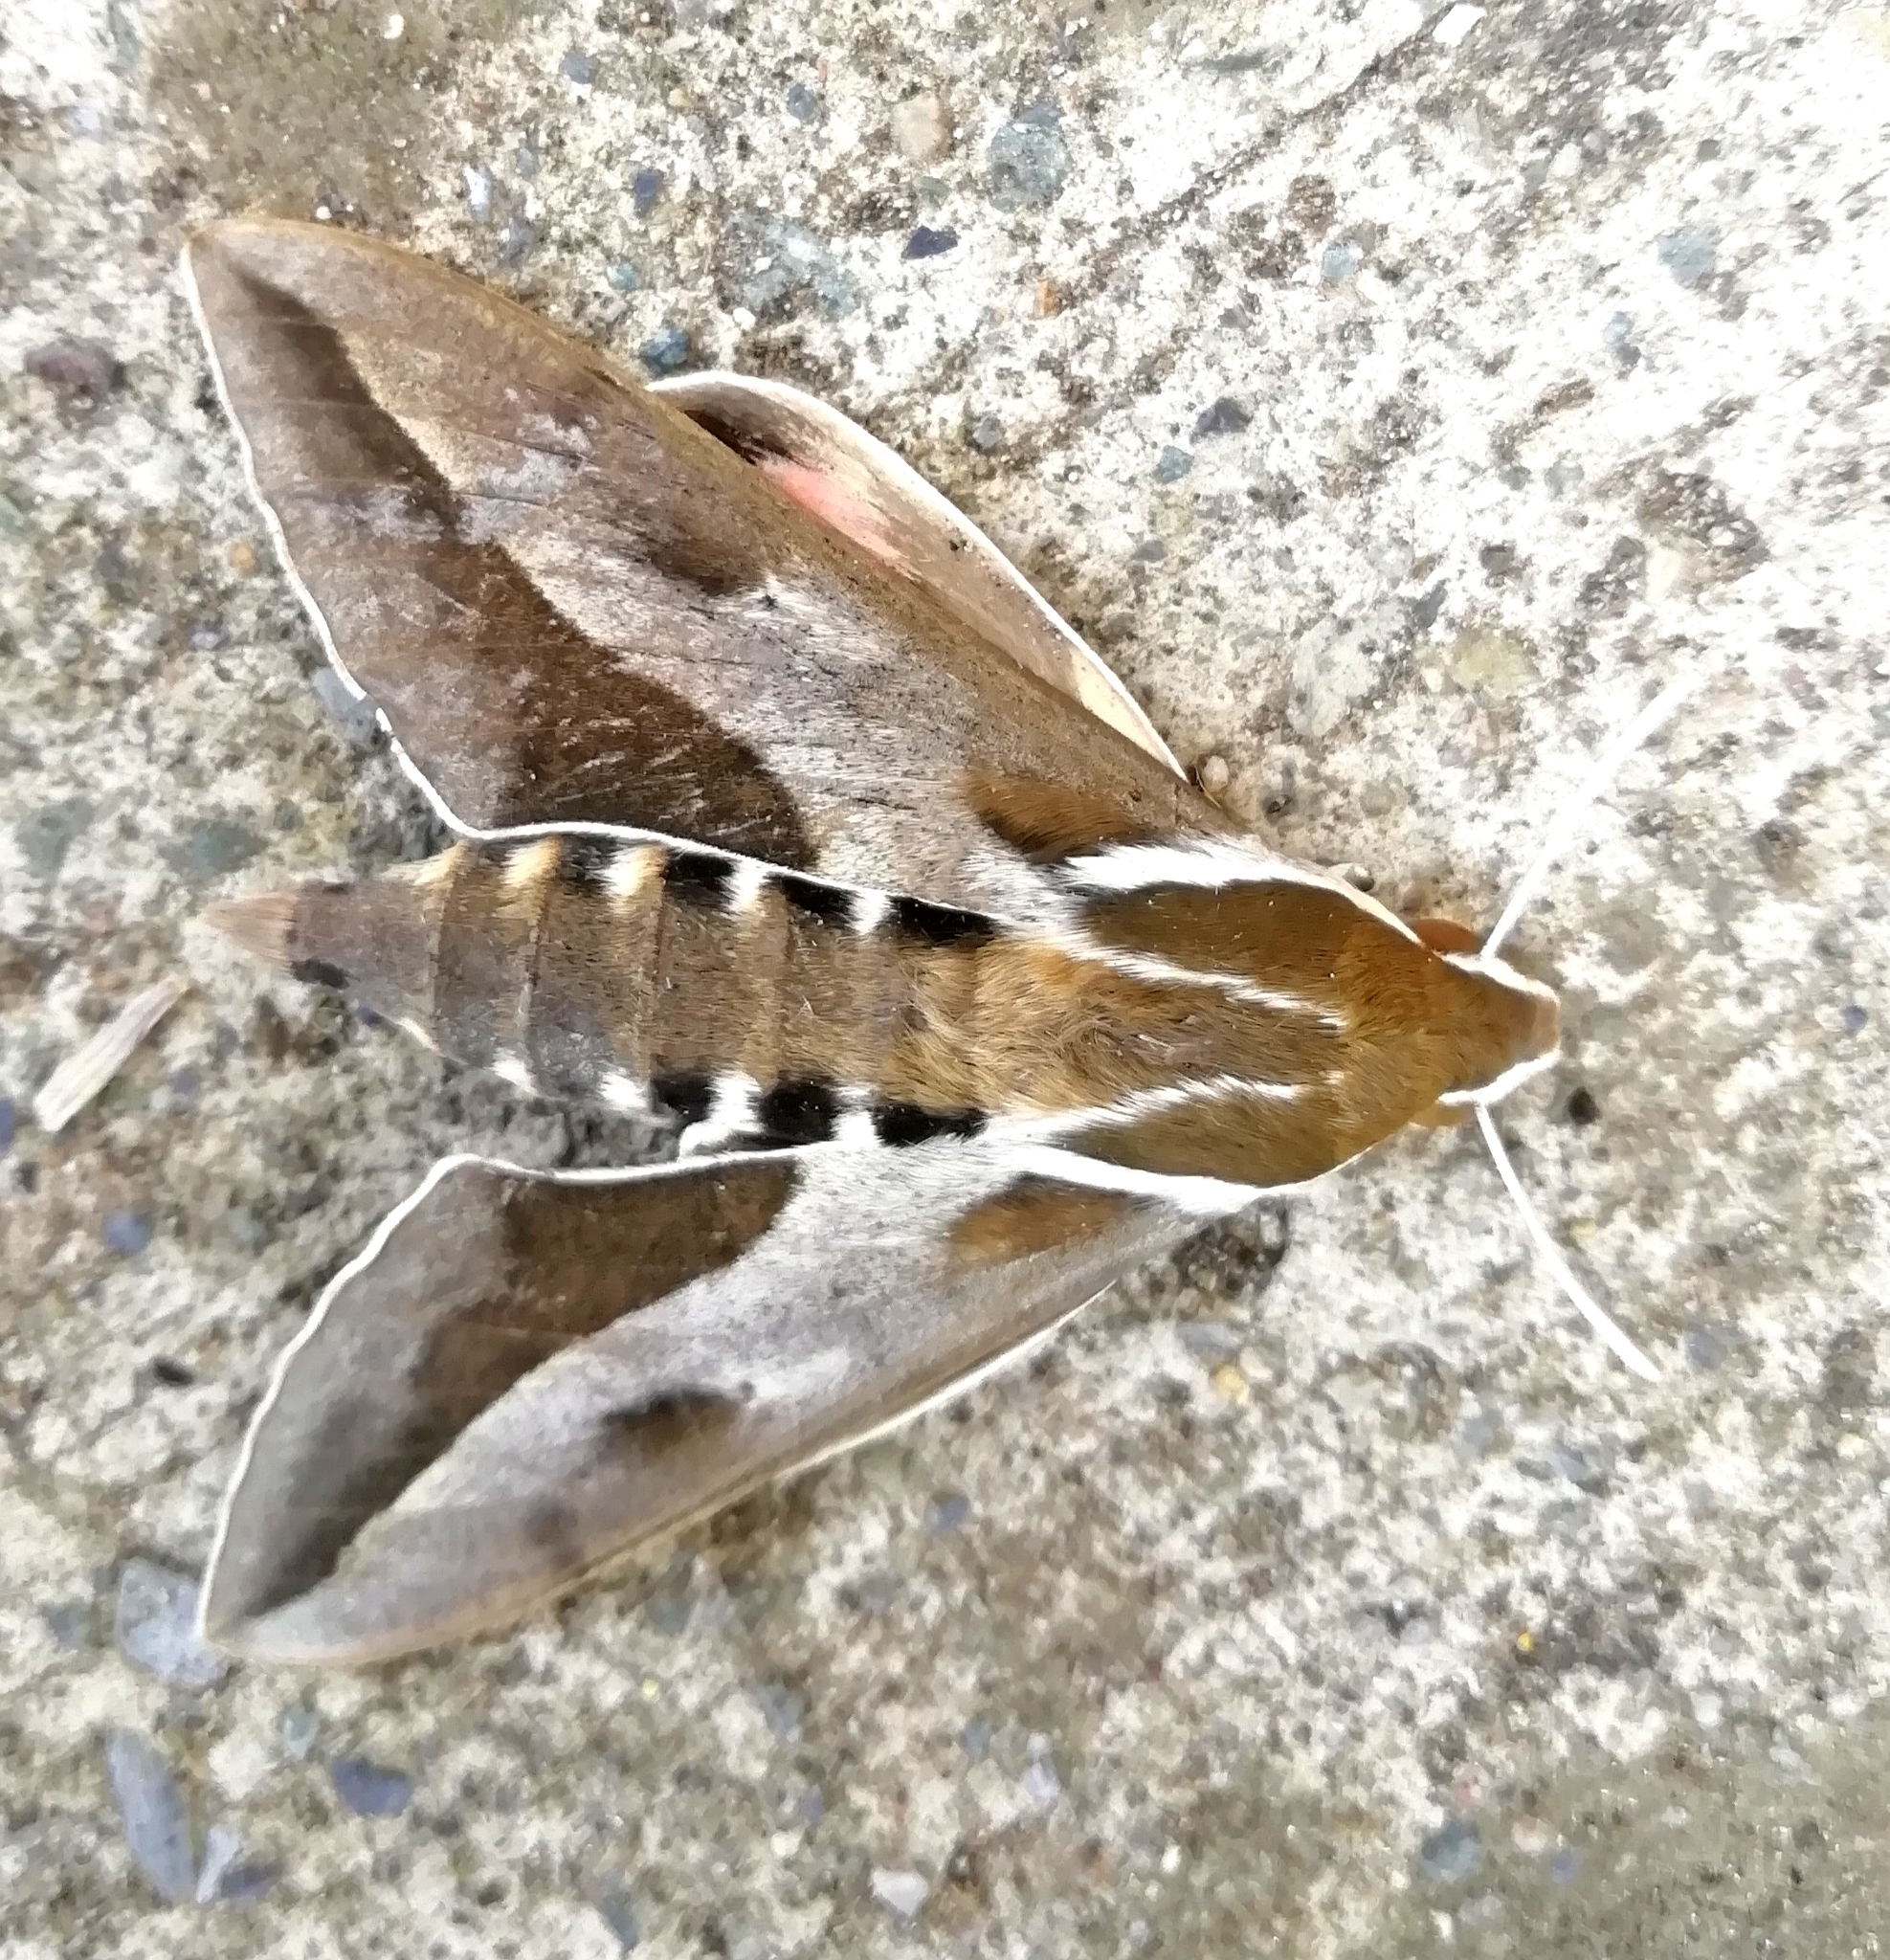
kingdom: Animalia
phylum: Arthropoda
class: Insecta
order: Lepidoptera
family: Sphingidae
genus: Hyles
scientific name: Hyles annei
